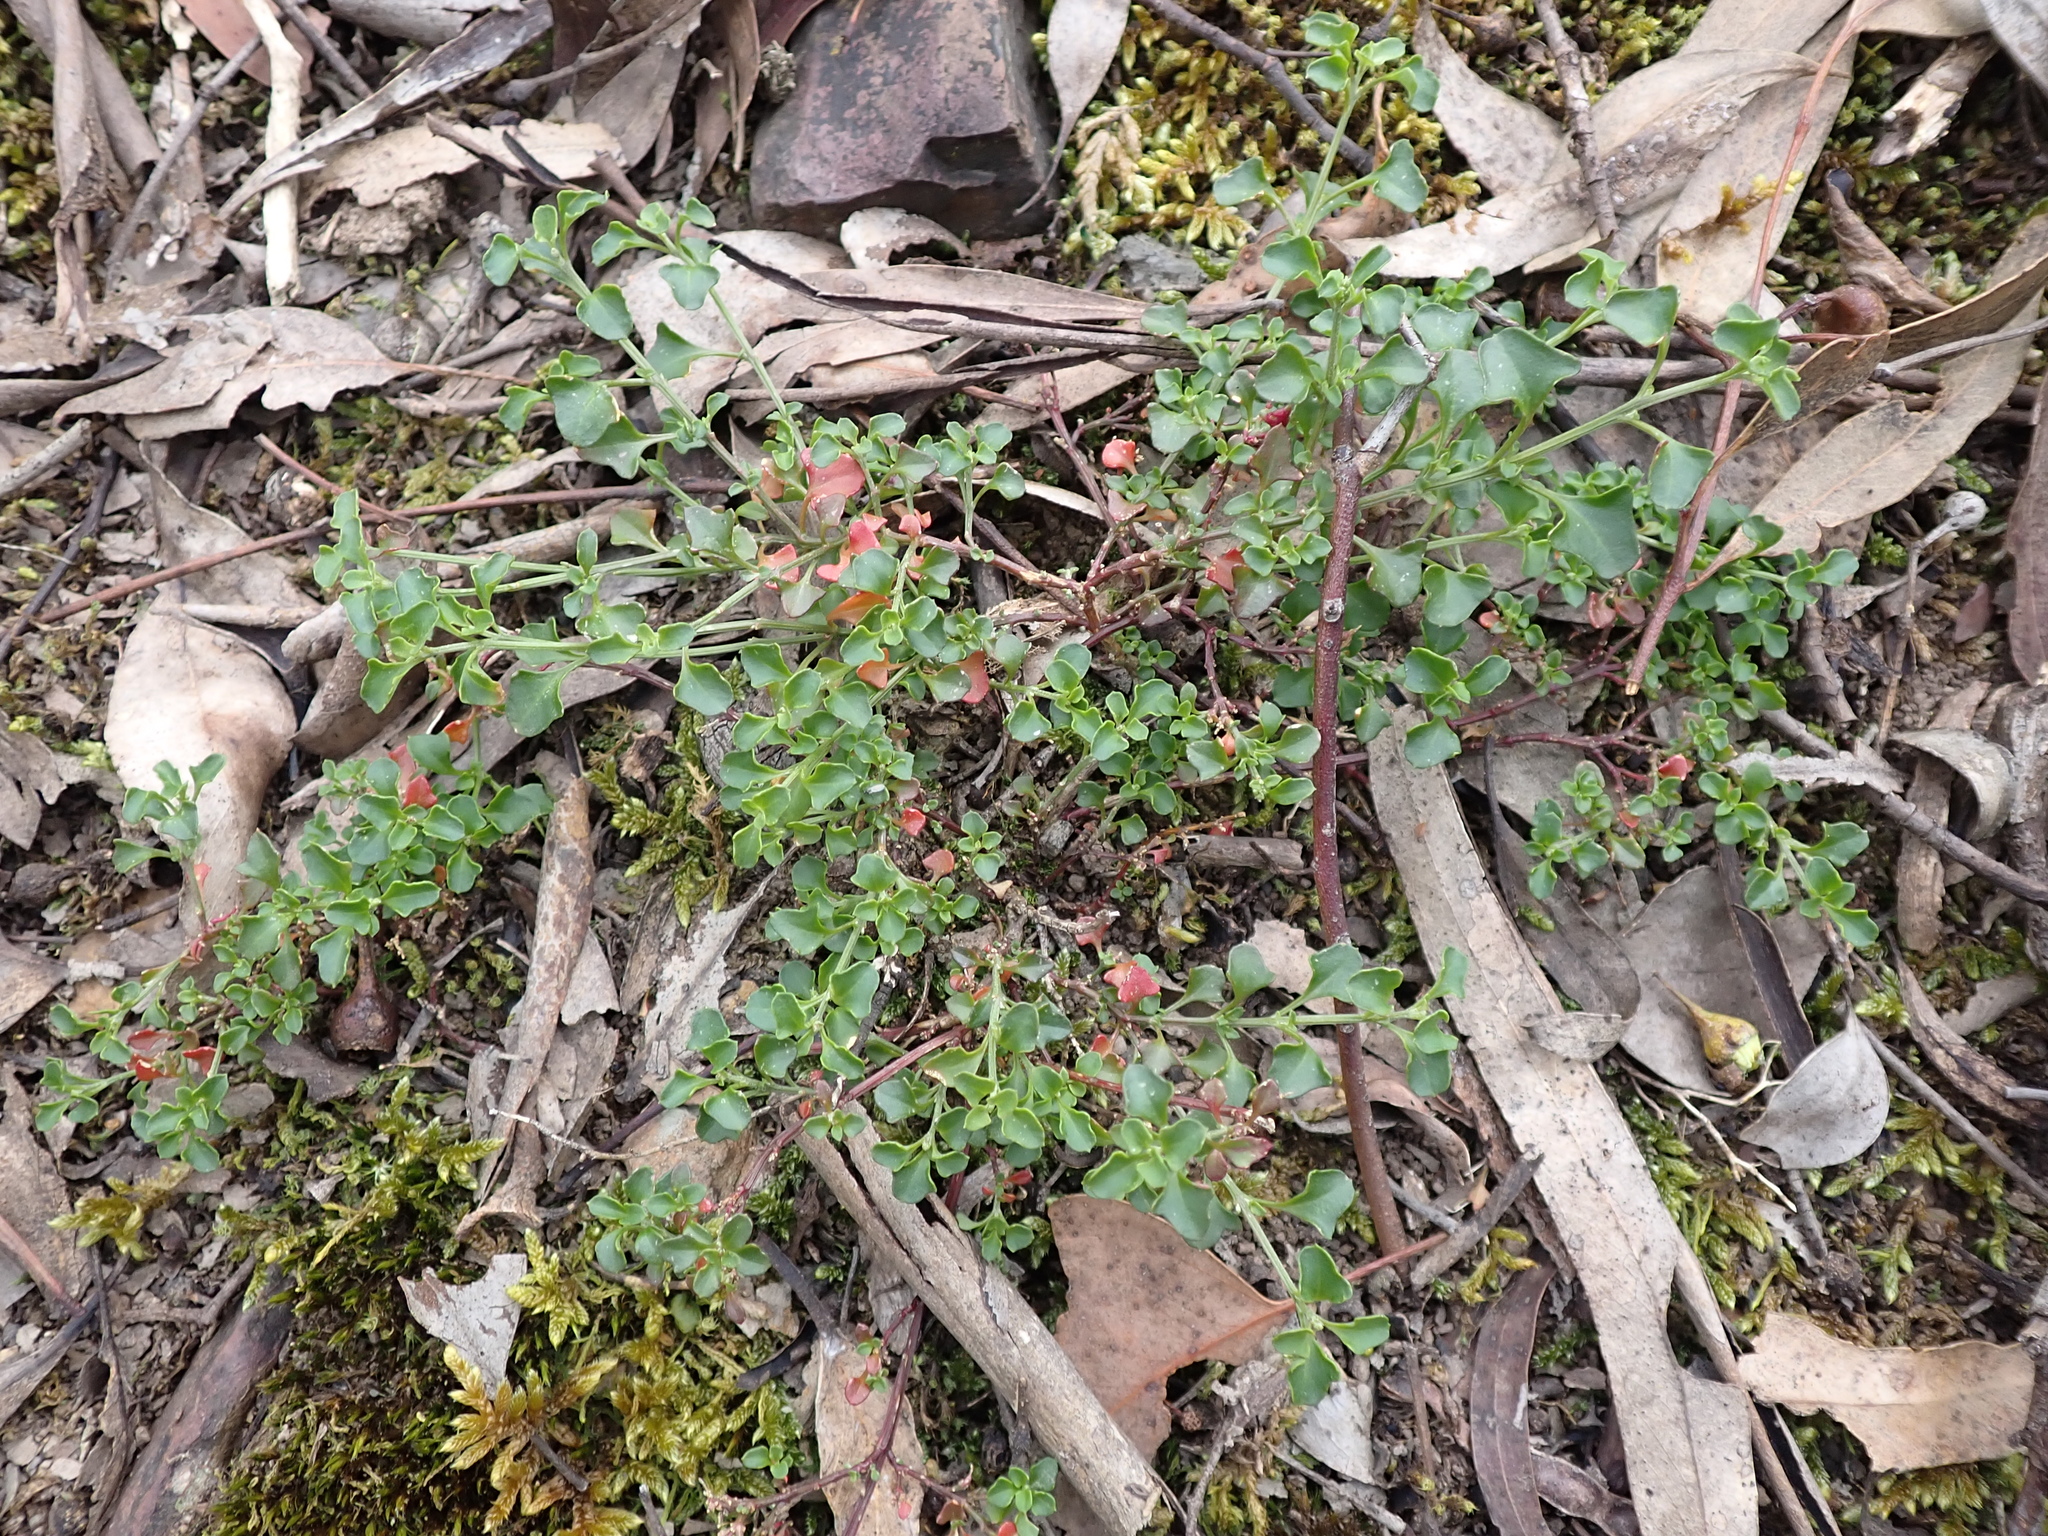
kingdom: Plantae
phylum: Tracheophyta
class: Magnoliopsida
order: Caryophyllales
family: Amaranthaceae
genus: Chenopodium
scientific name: Chenopodium robertianum
